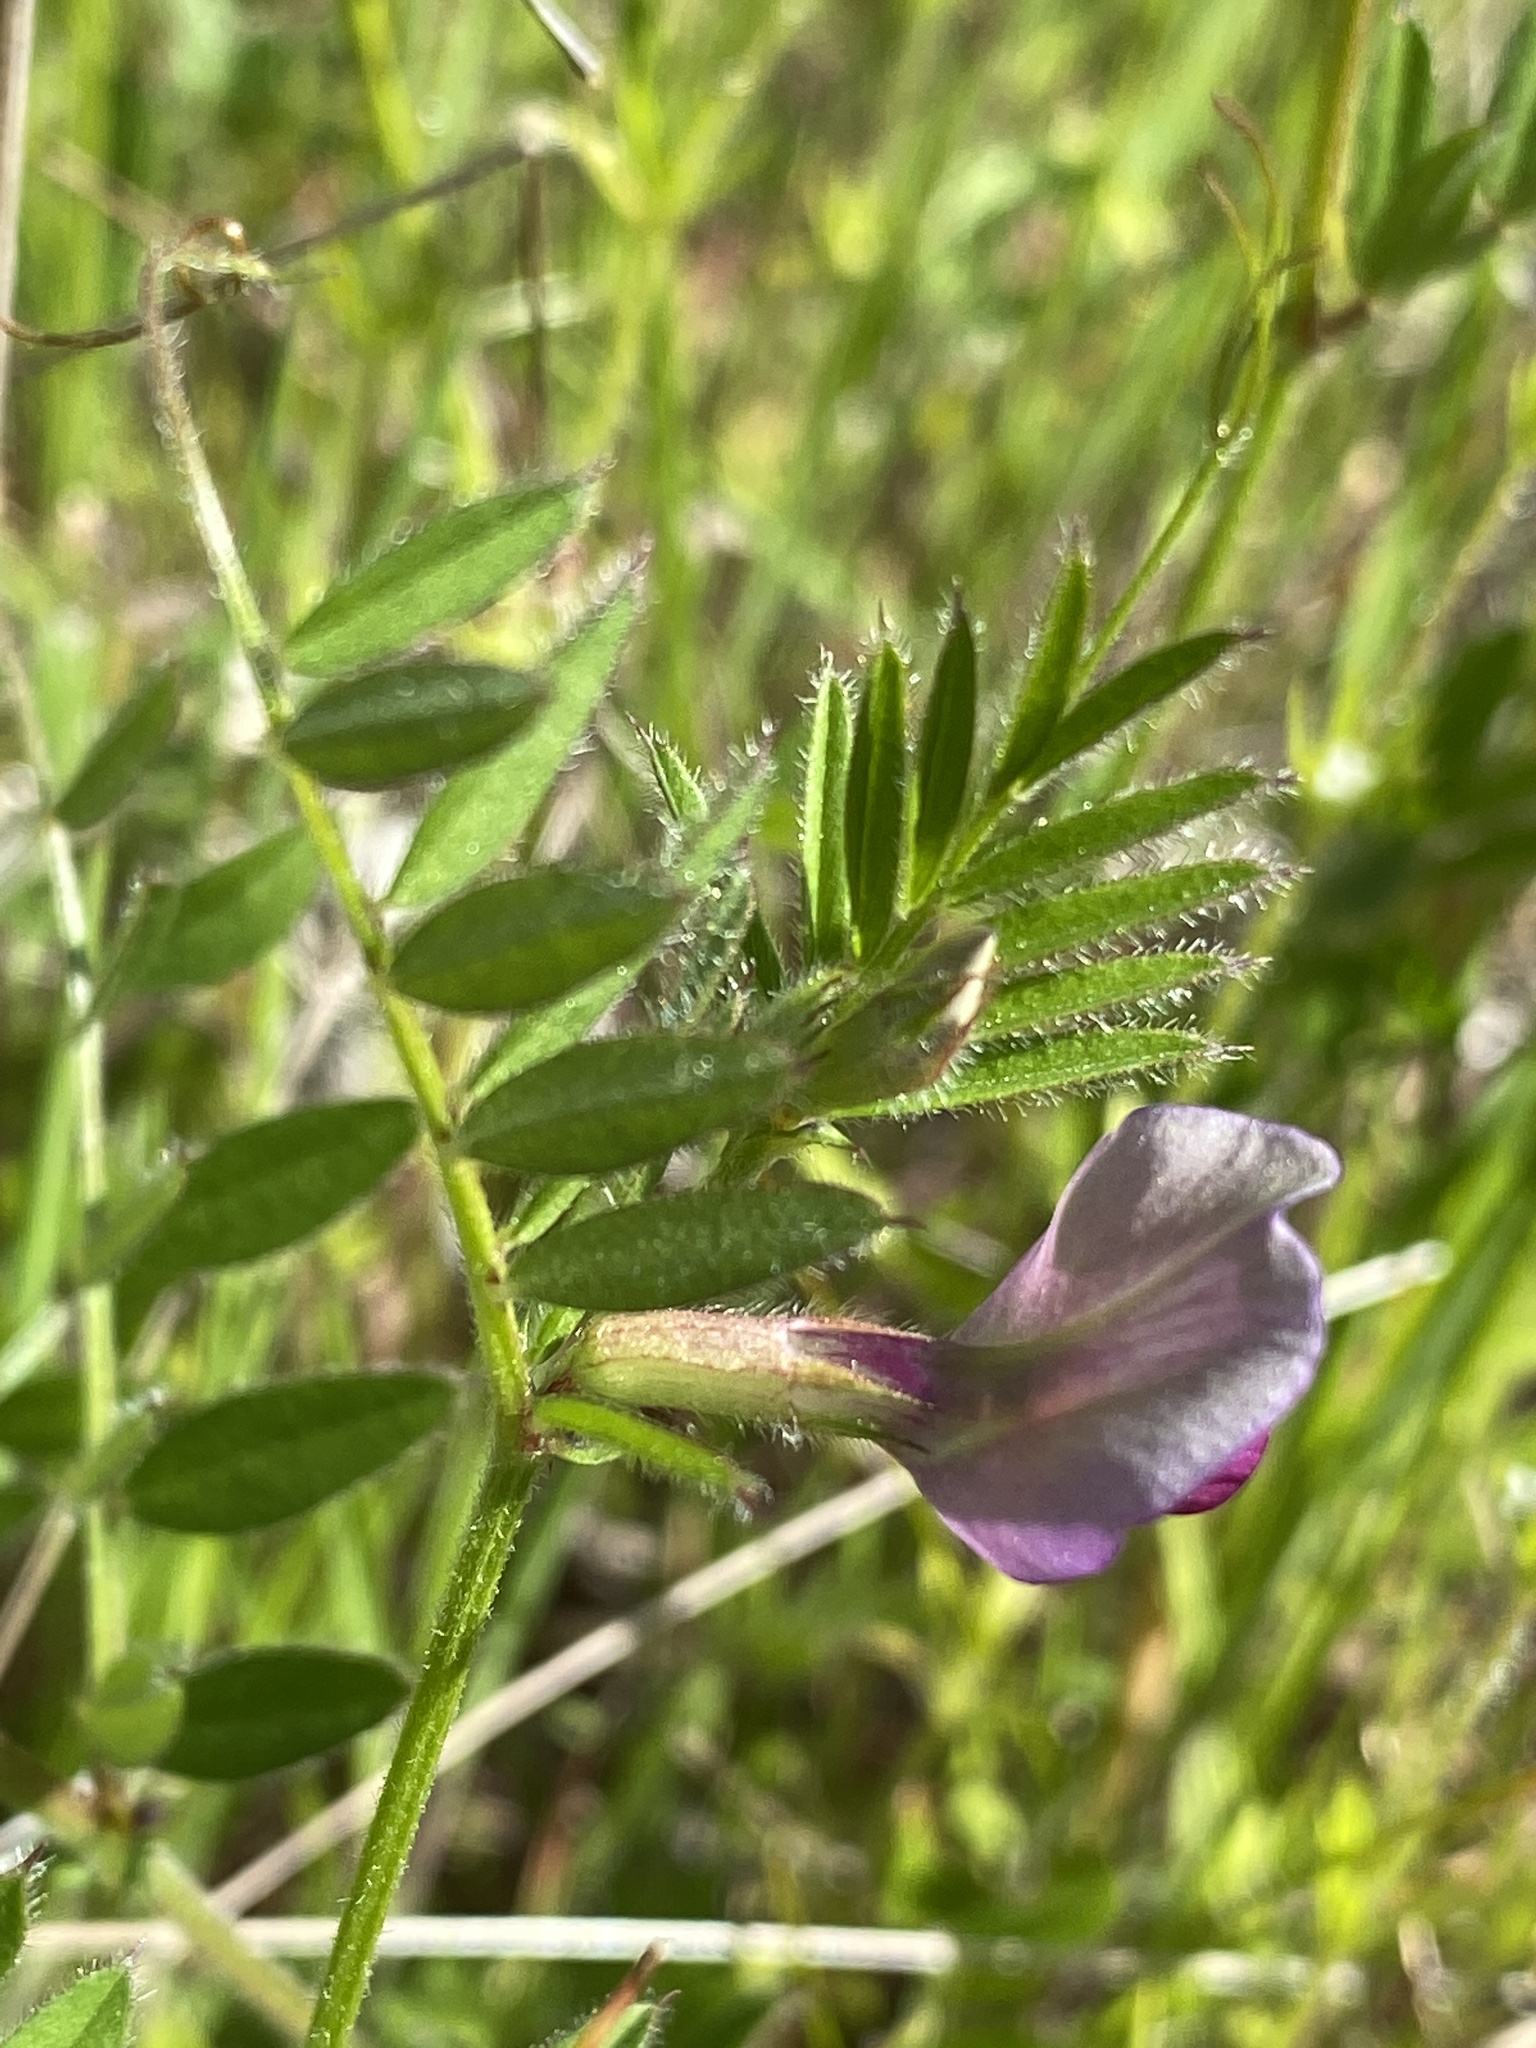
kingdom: Plantae
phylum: Tracheophyta
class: Magnoliopsida
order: Fabales
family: Fabaceae
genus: Vicia
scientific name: Vicia sativa
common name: Garden vetch
